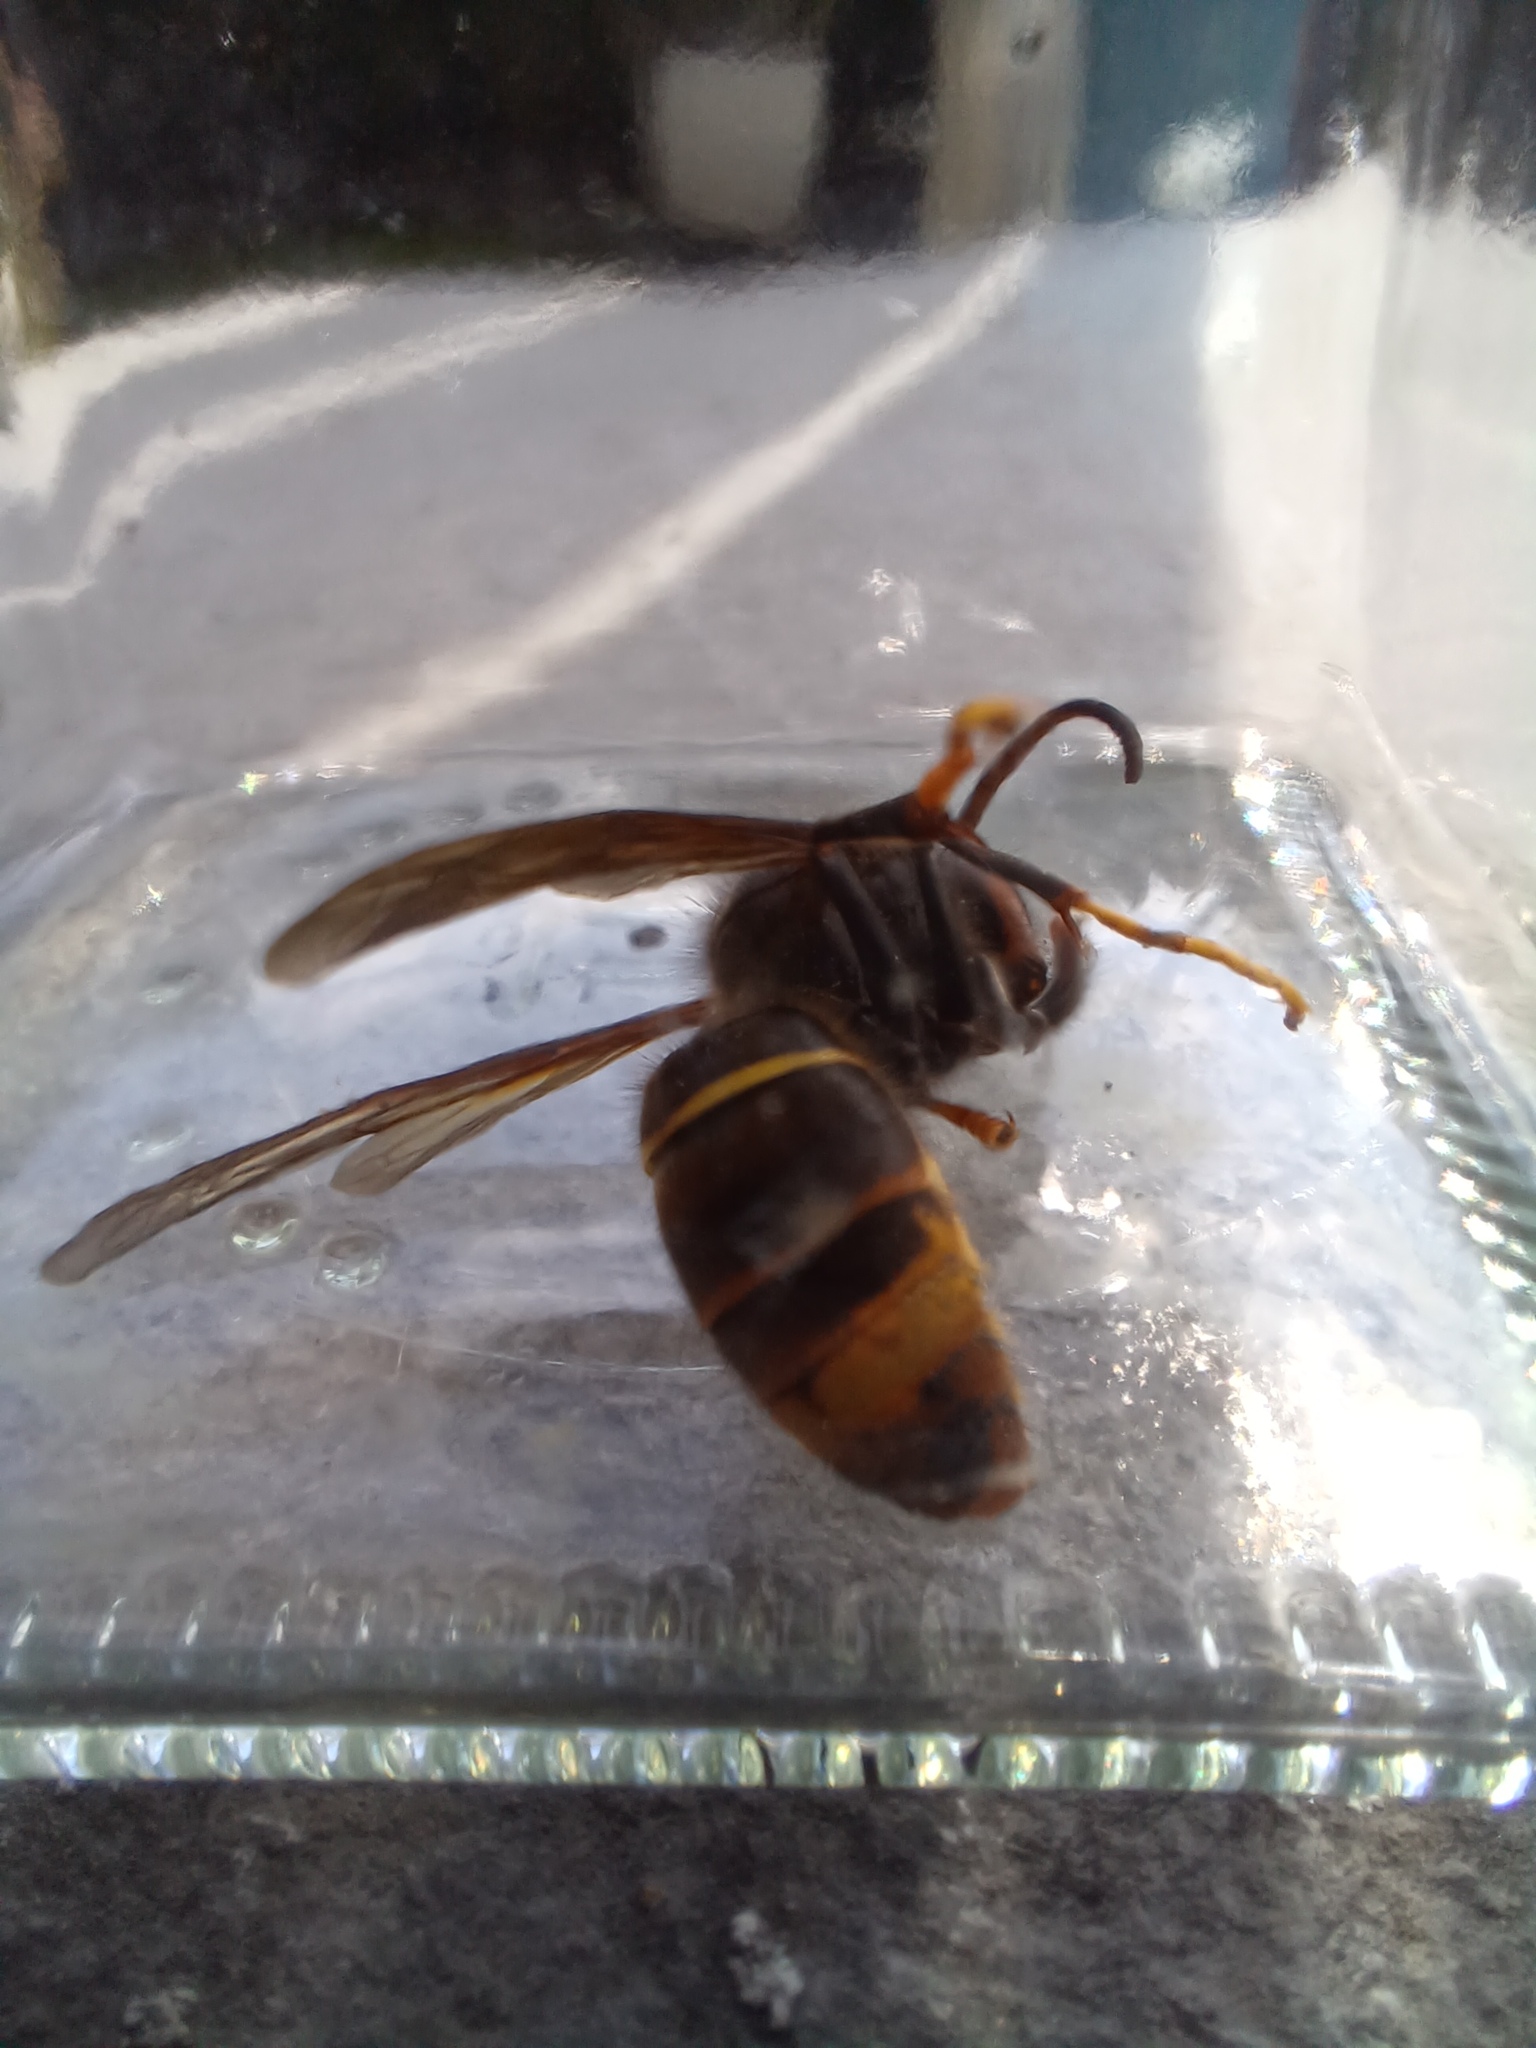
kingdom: Animalia
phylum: Arthropoda
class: Insecta
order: Hymenoptera
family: Vespidae
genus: Vespa
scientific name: Vespa velutina
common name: Asian hornet
